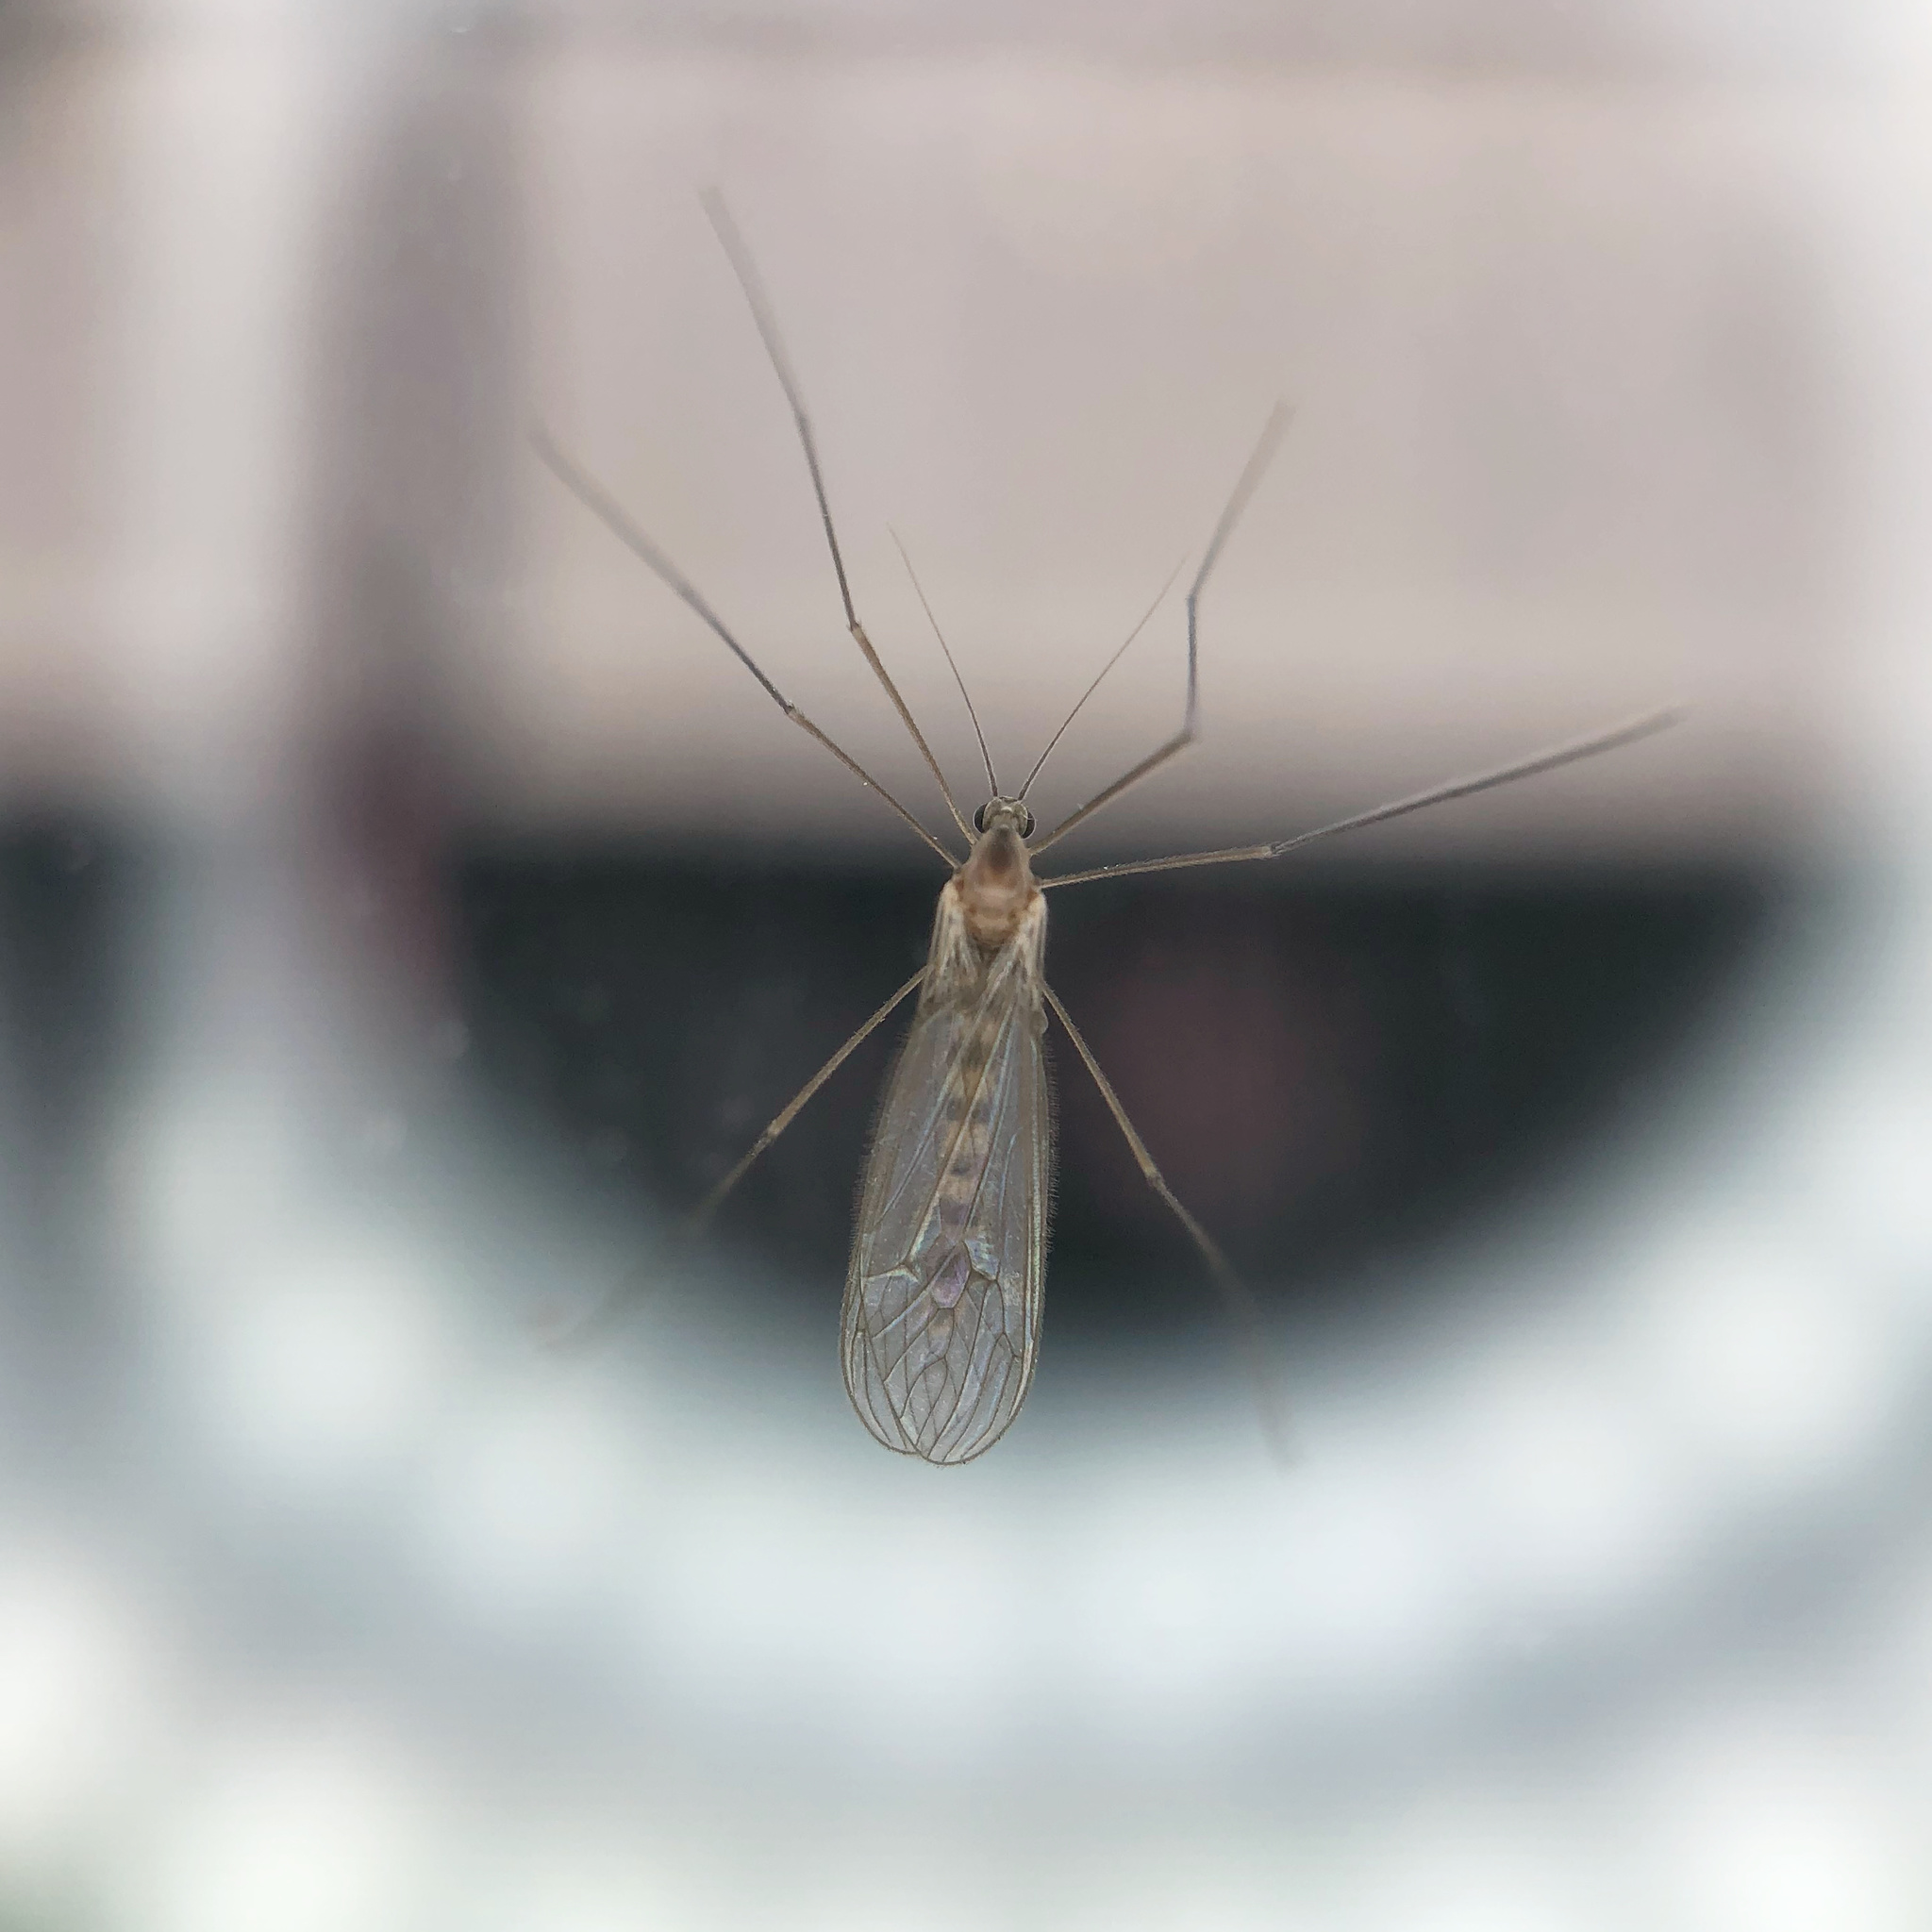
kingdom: Animalia
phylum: Arthropoda
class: Insecta
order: Diptera
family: Trichoceridae
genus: Trichocera
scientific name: Trichocera annulata
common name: Winter gnat
